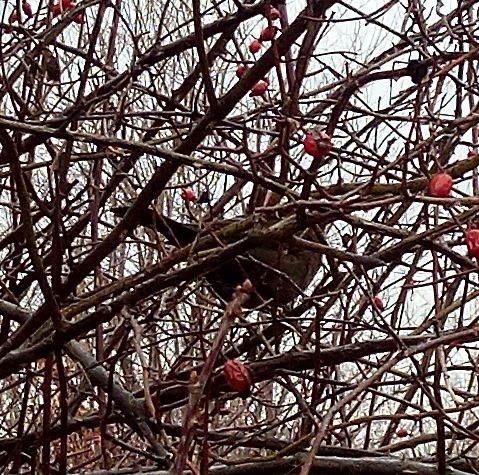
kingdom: Animalia
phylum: Chordata
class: Aves
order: Passeriformes
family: Turdidae
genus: Turdus
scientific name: Turdus merula
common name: Common blackbird
